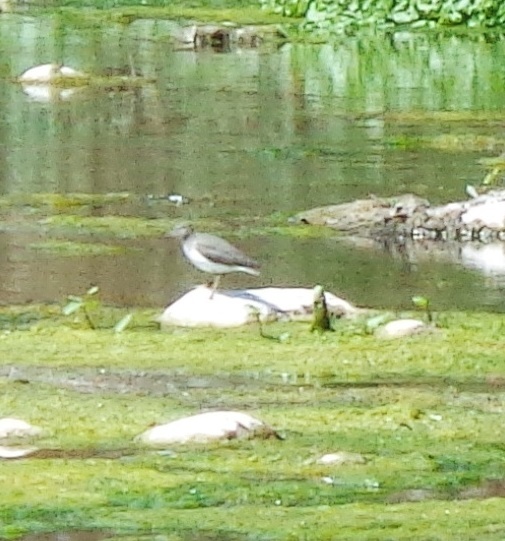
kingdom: Animalia
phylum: Chordata
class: Aves
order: Charadriiformes
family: Scolopacidae
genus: Actitis
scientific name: Actitis macularius
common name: Spotted sandpiper
